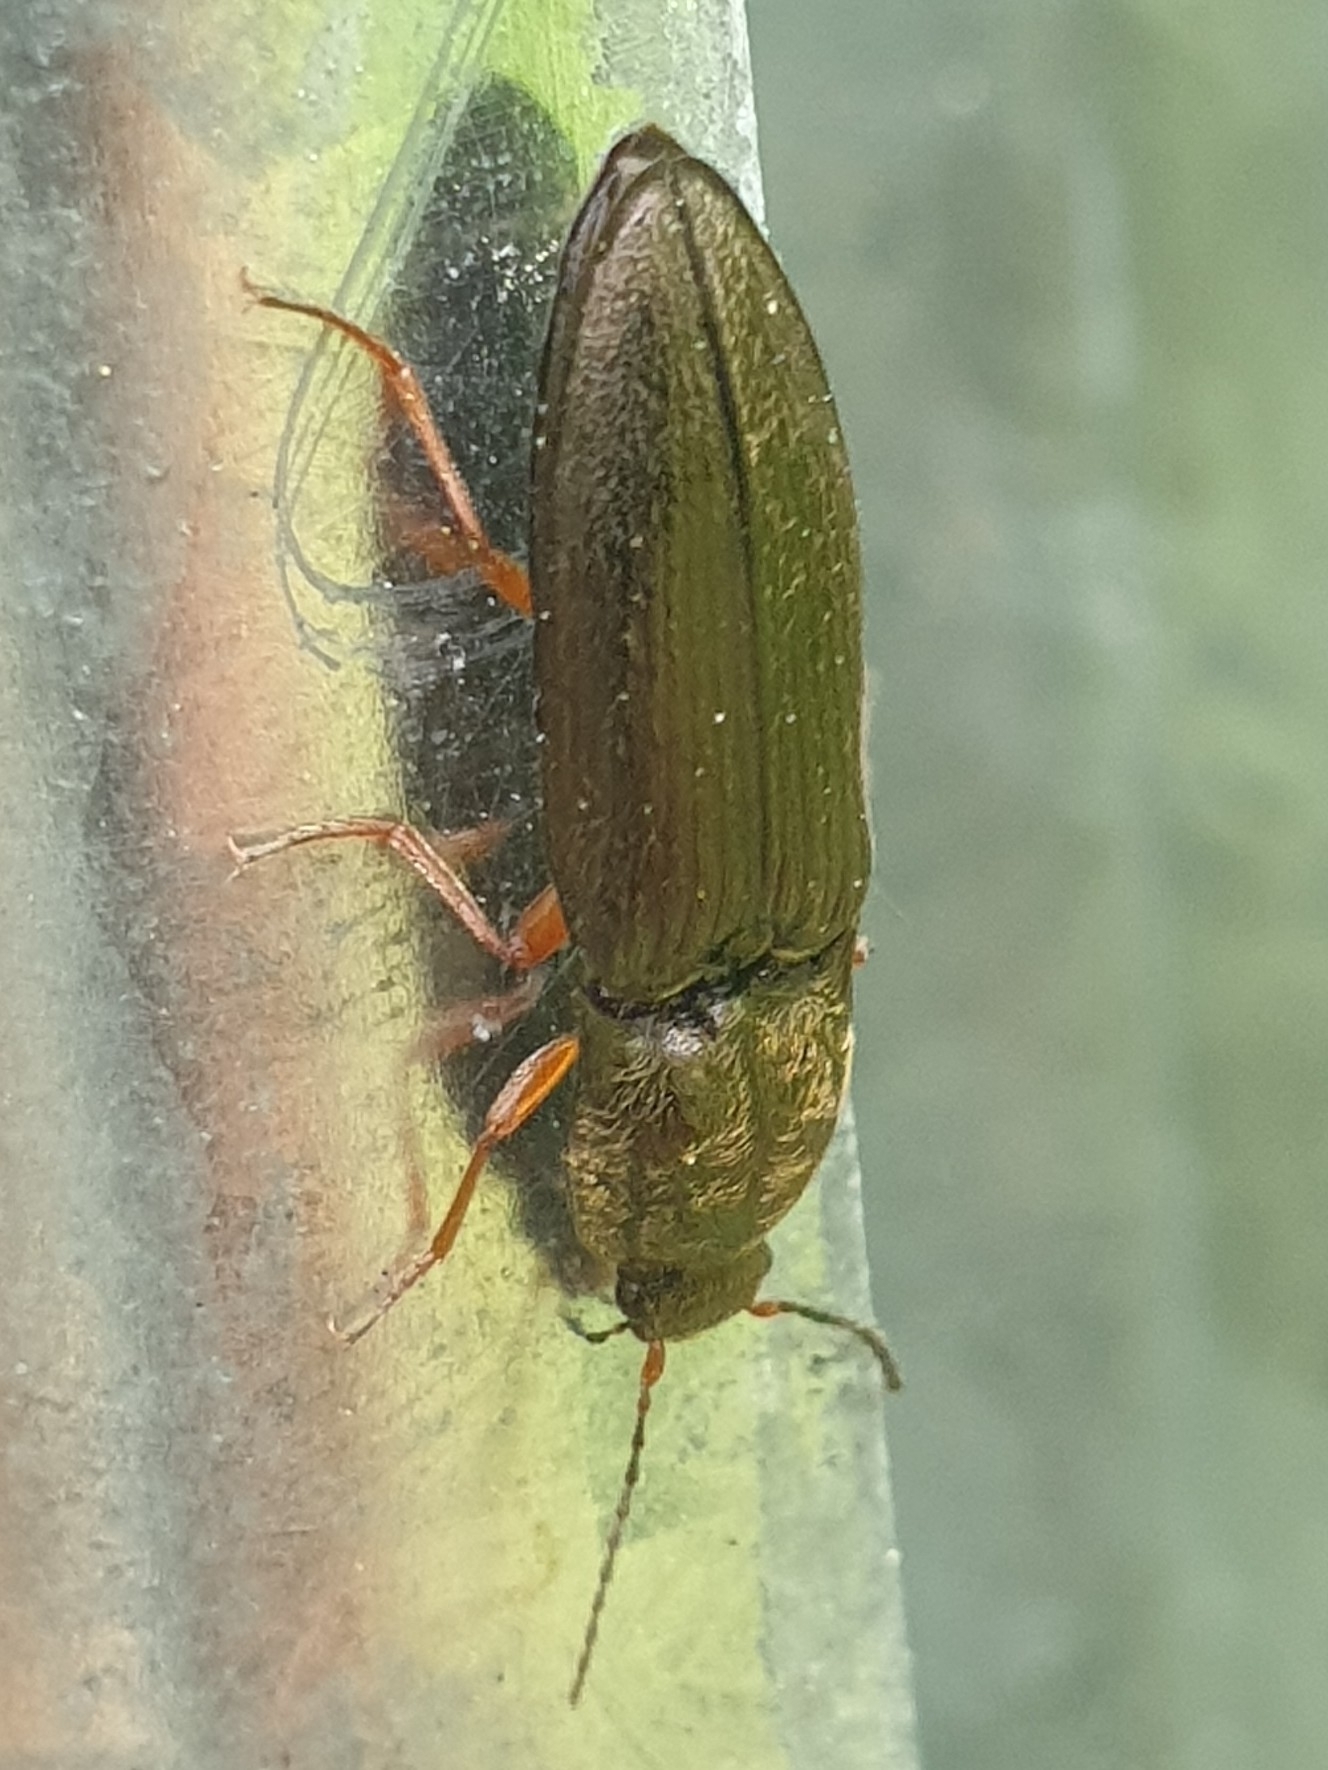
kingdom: Animalia
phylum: Arthropoda
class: Insecta
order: Coleoptera
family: Elateridae
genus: Paraphotistus
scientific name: Paraphotistus nigricornis
